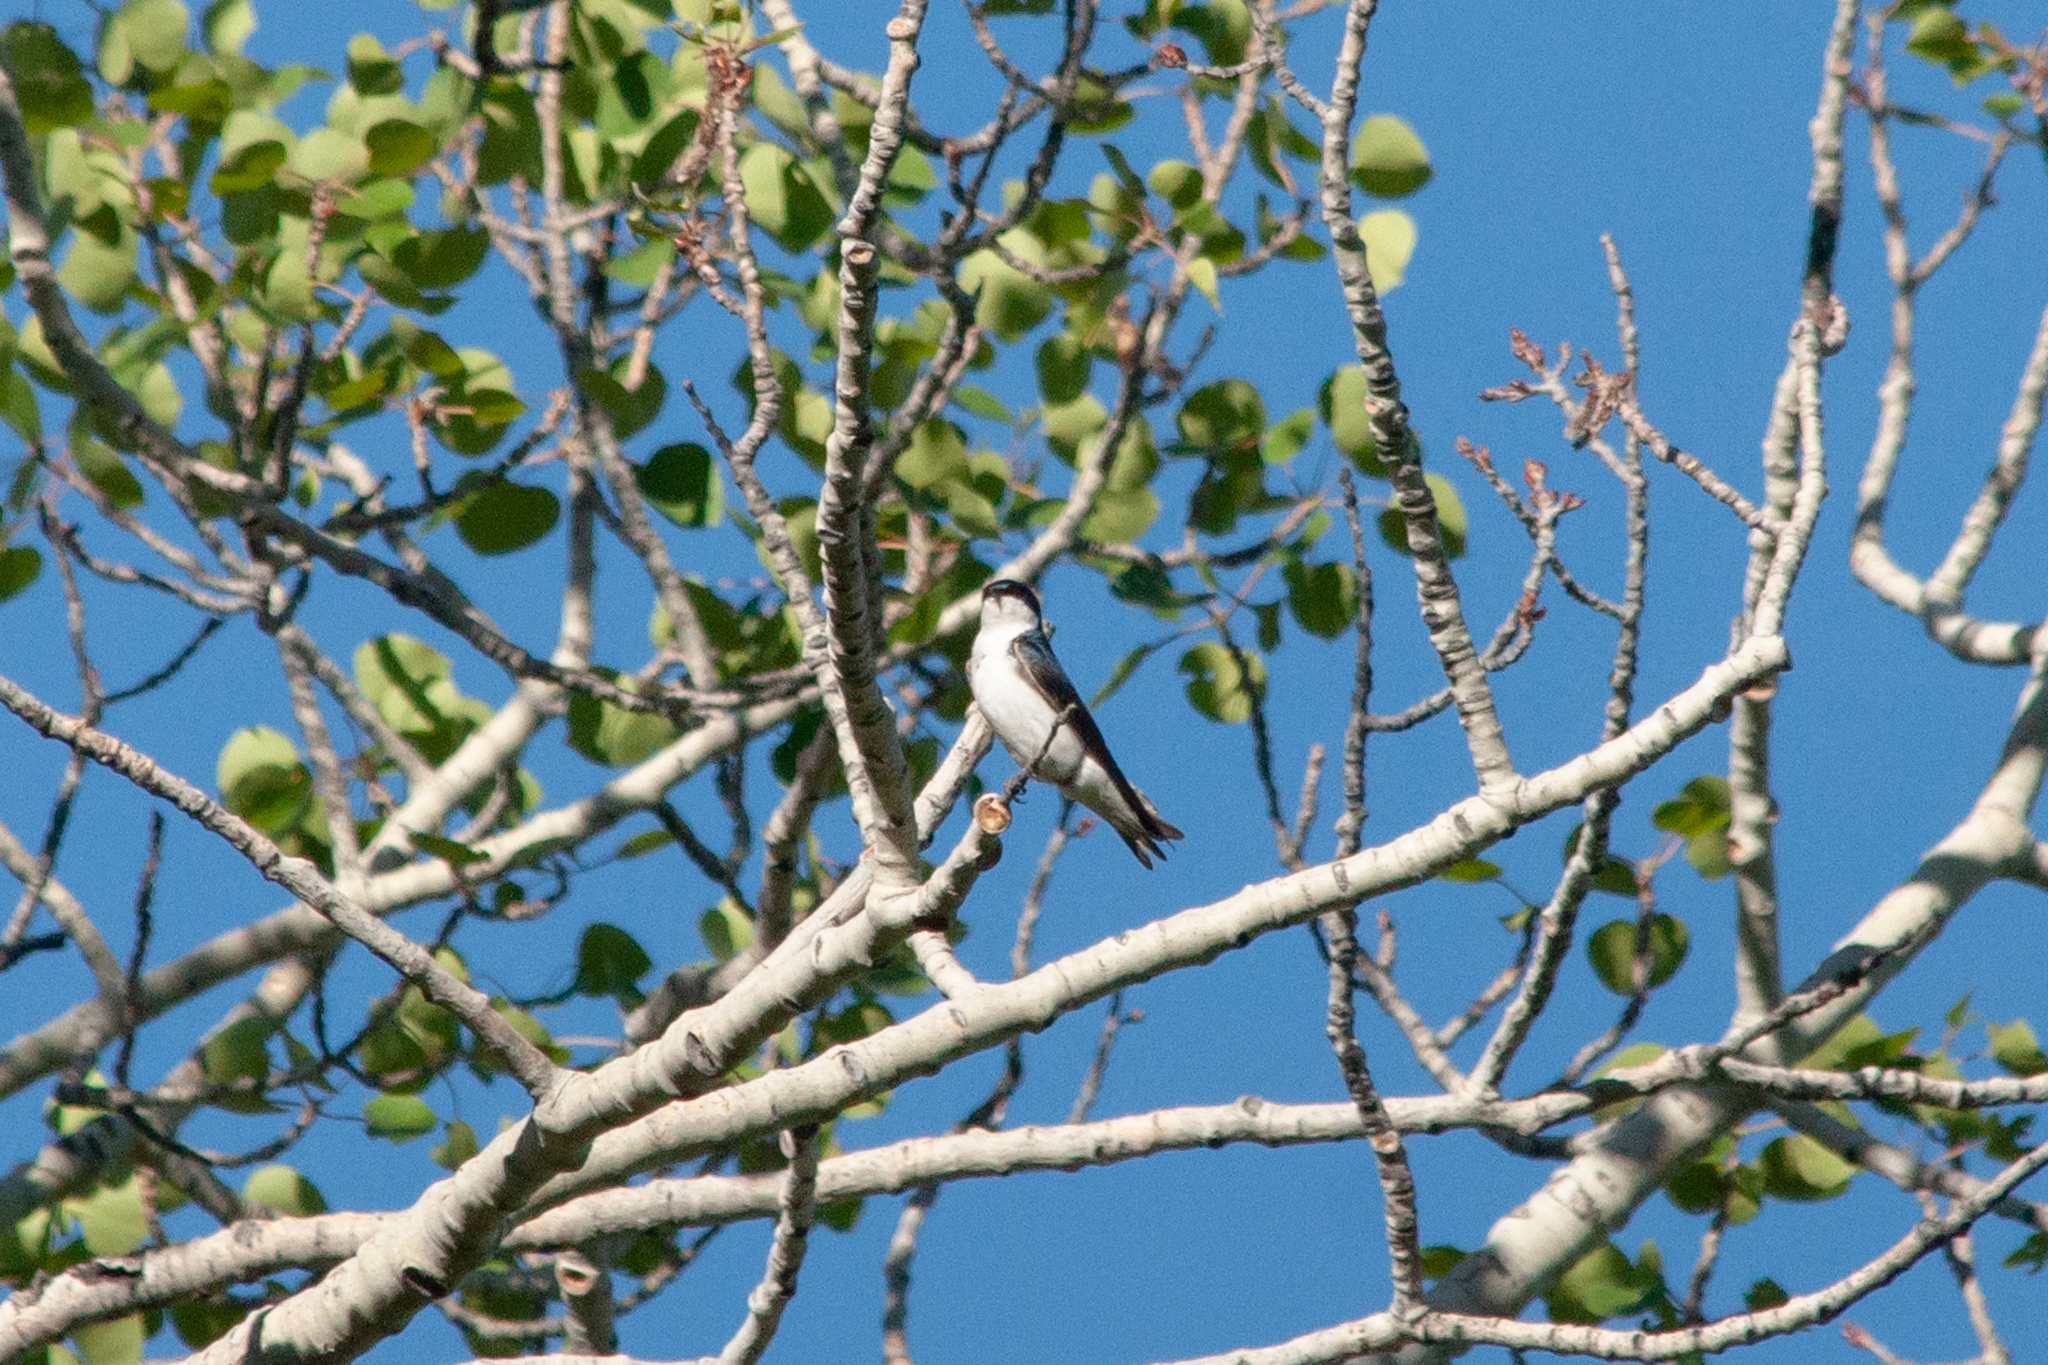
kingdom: Animalia
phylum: Chordata
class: Aves
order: Passeriformes
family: Hirundinidae
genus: Tachycineta
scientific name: Tachycineta bicolor
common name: Tree swallow
